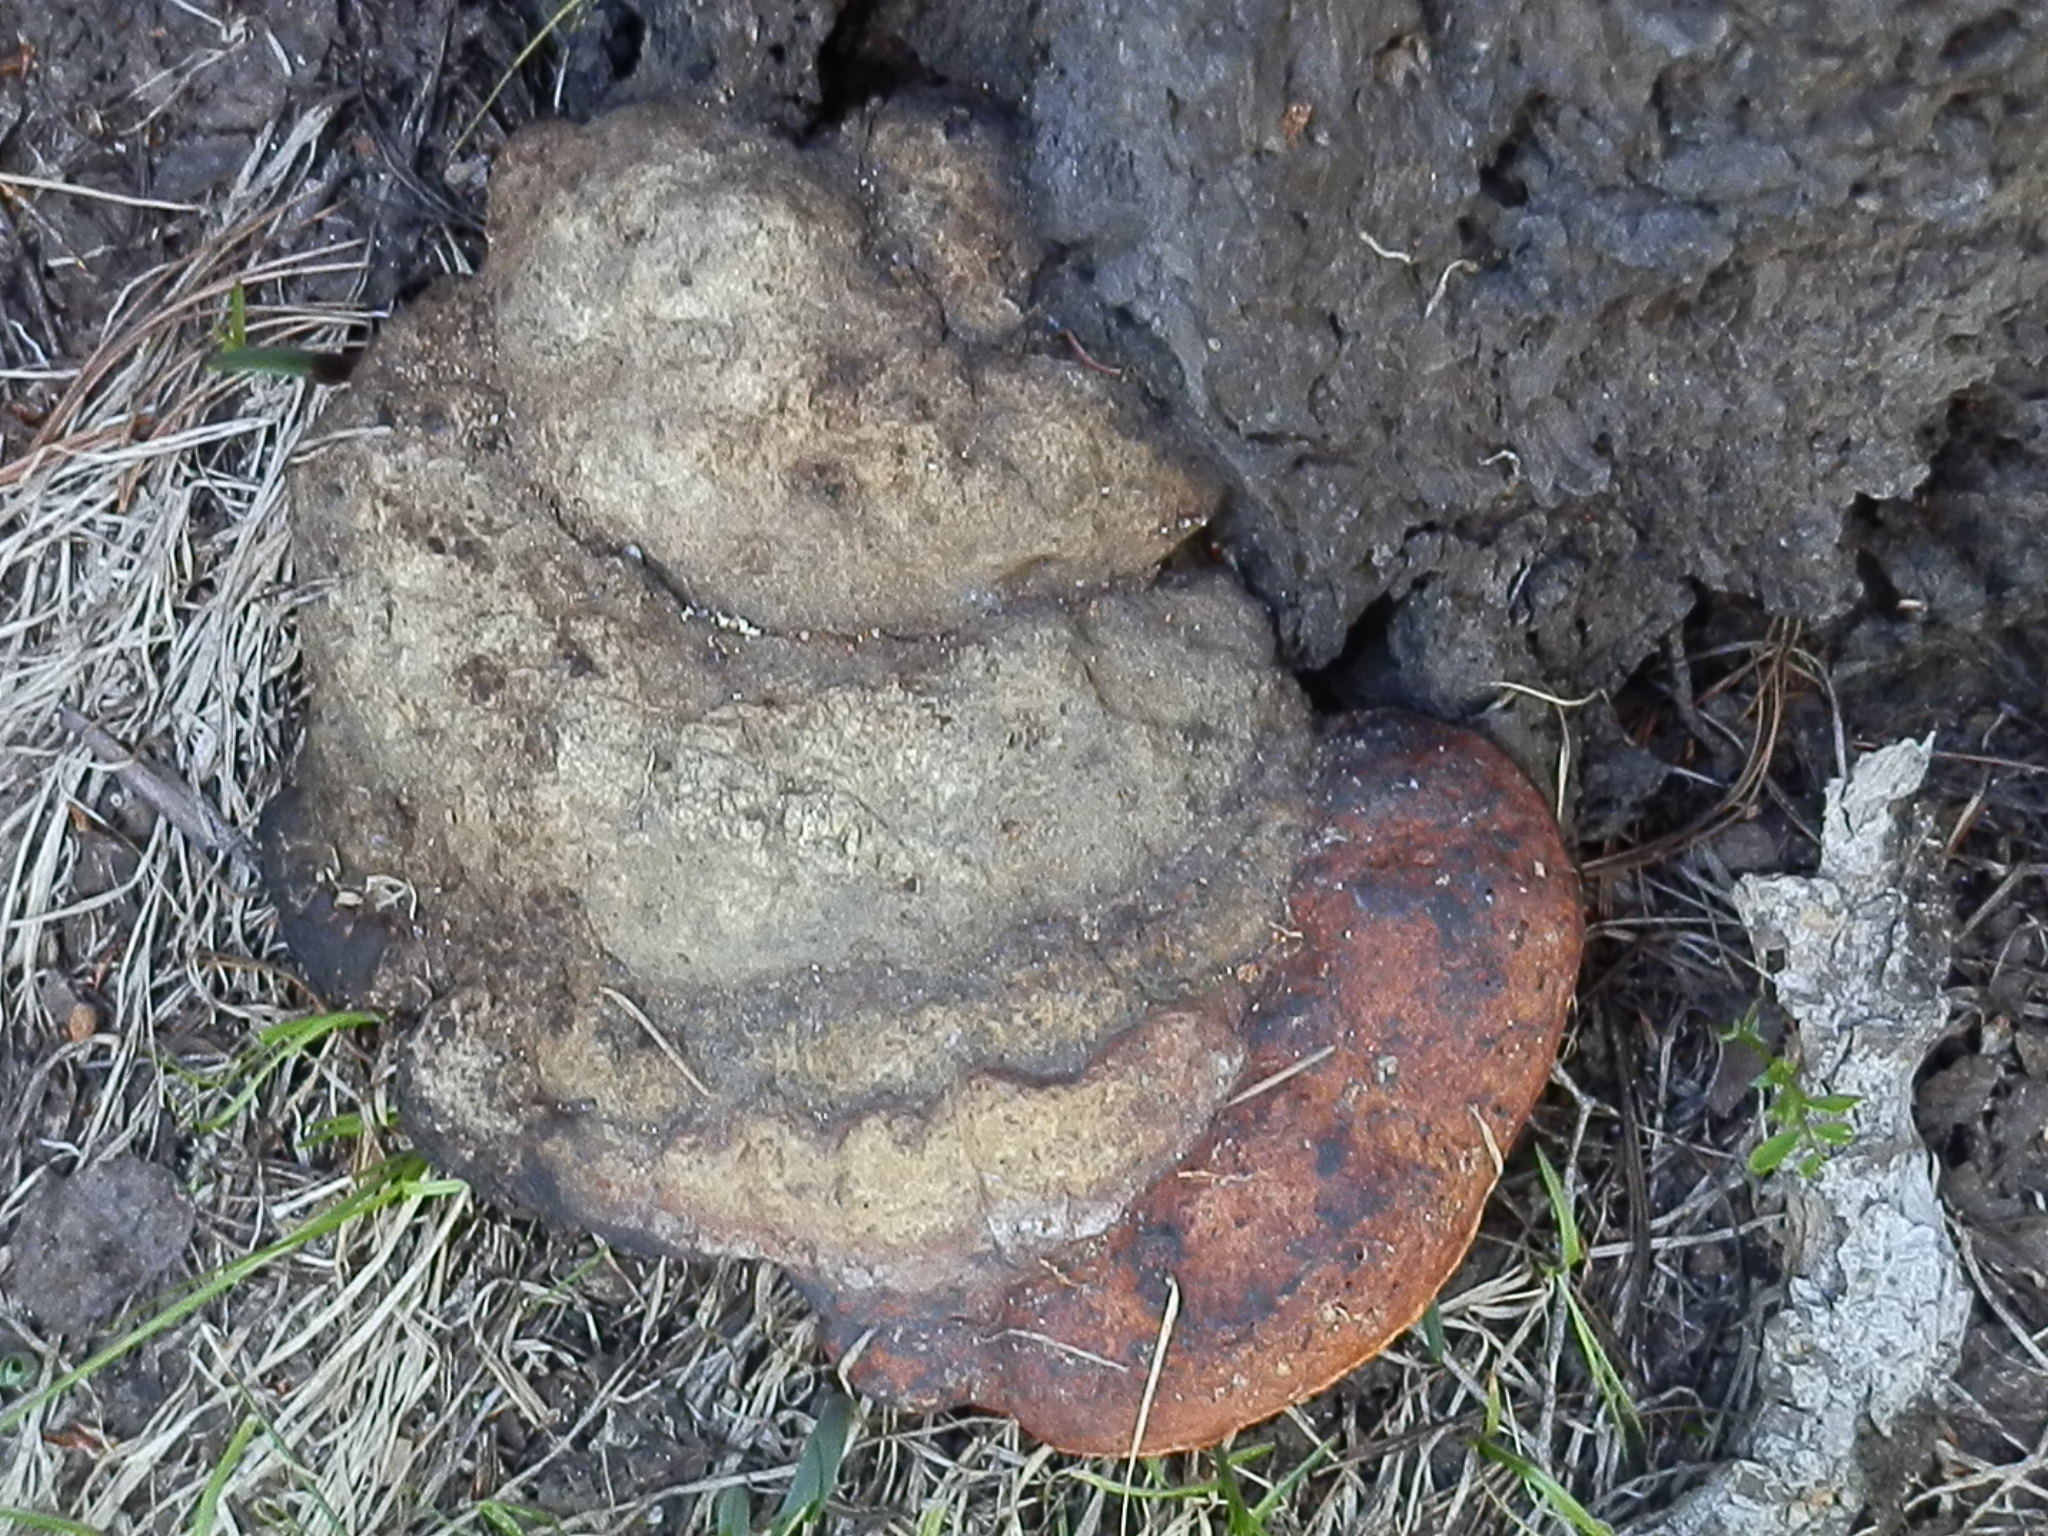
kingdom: Fungi
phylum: Basidiomycota
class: Agaricomycetes
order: Polyporales
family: Fomitopsidaceae
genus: Fomitopsis
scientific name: Fomitopsis schrenkii
